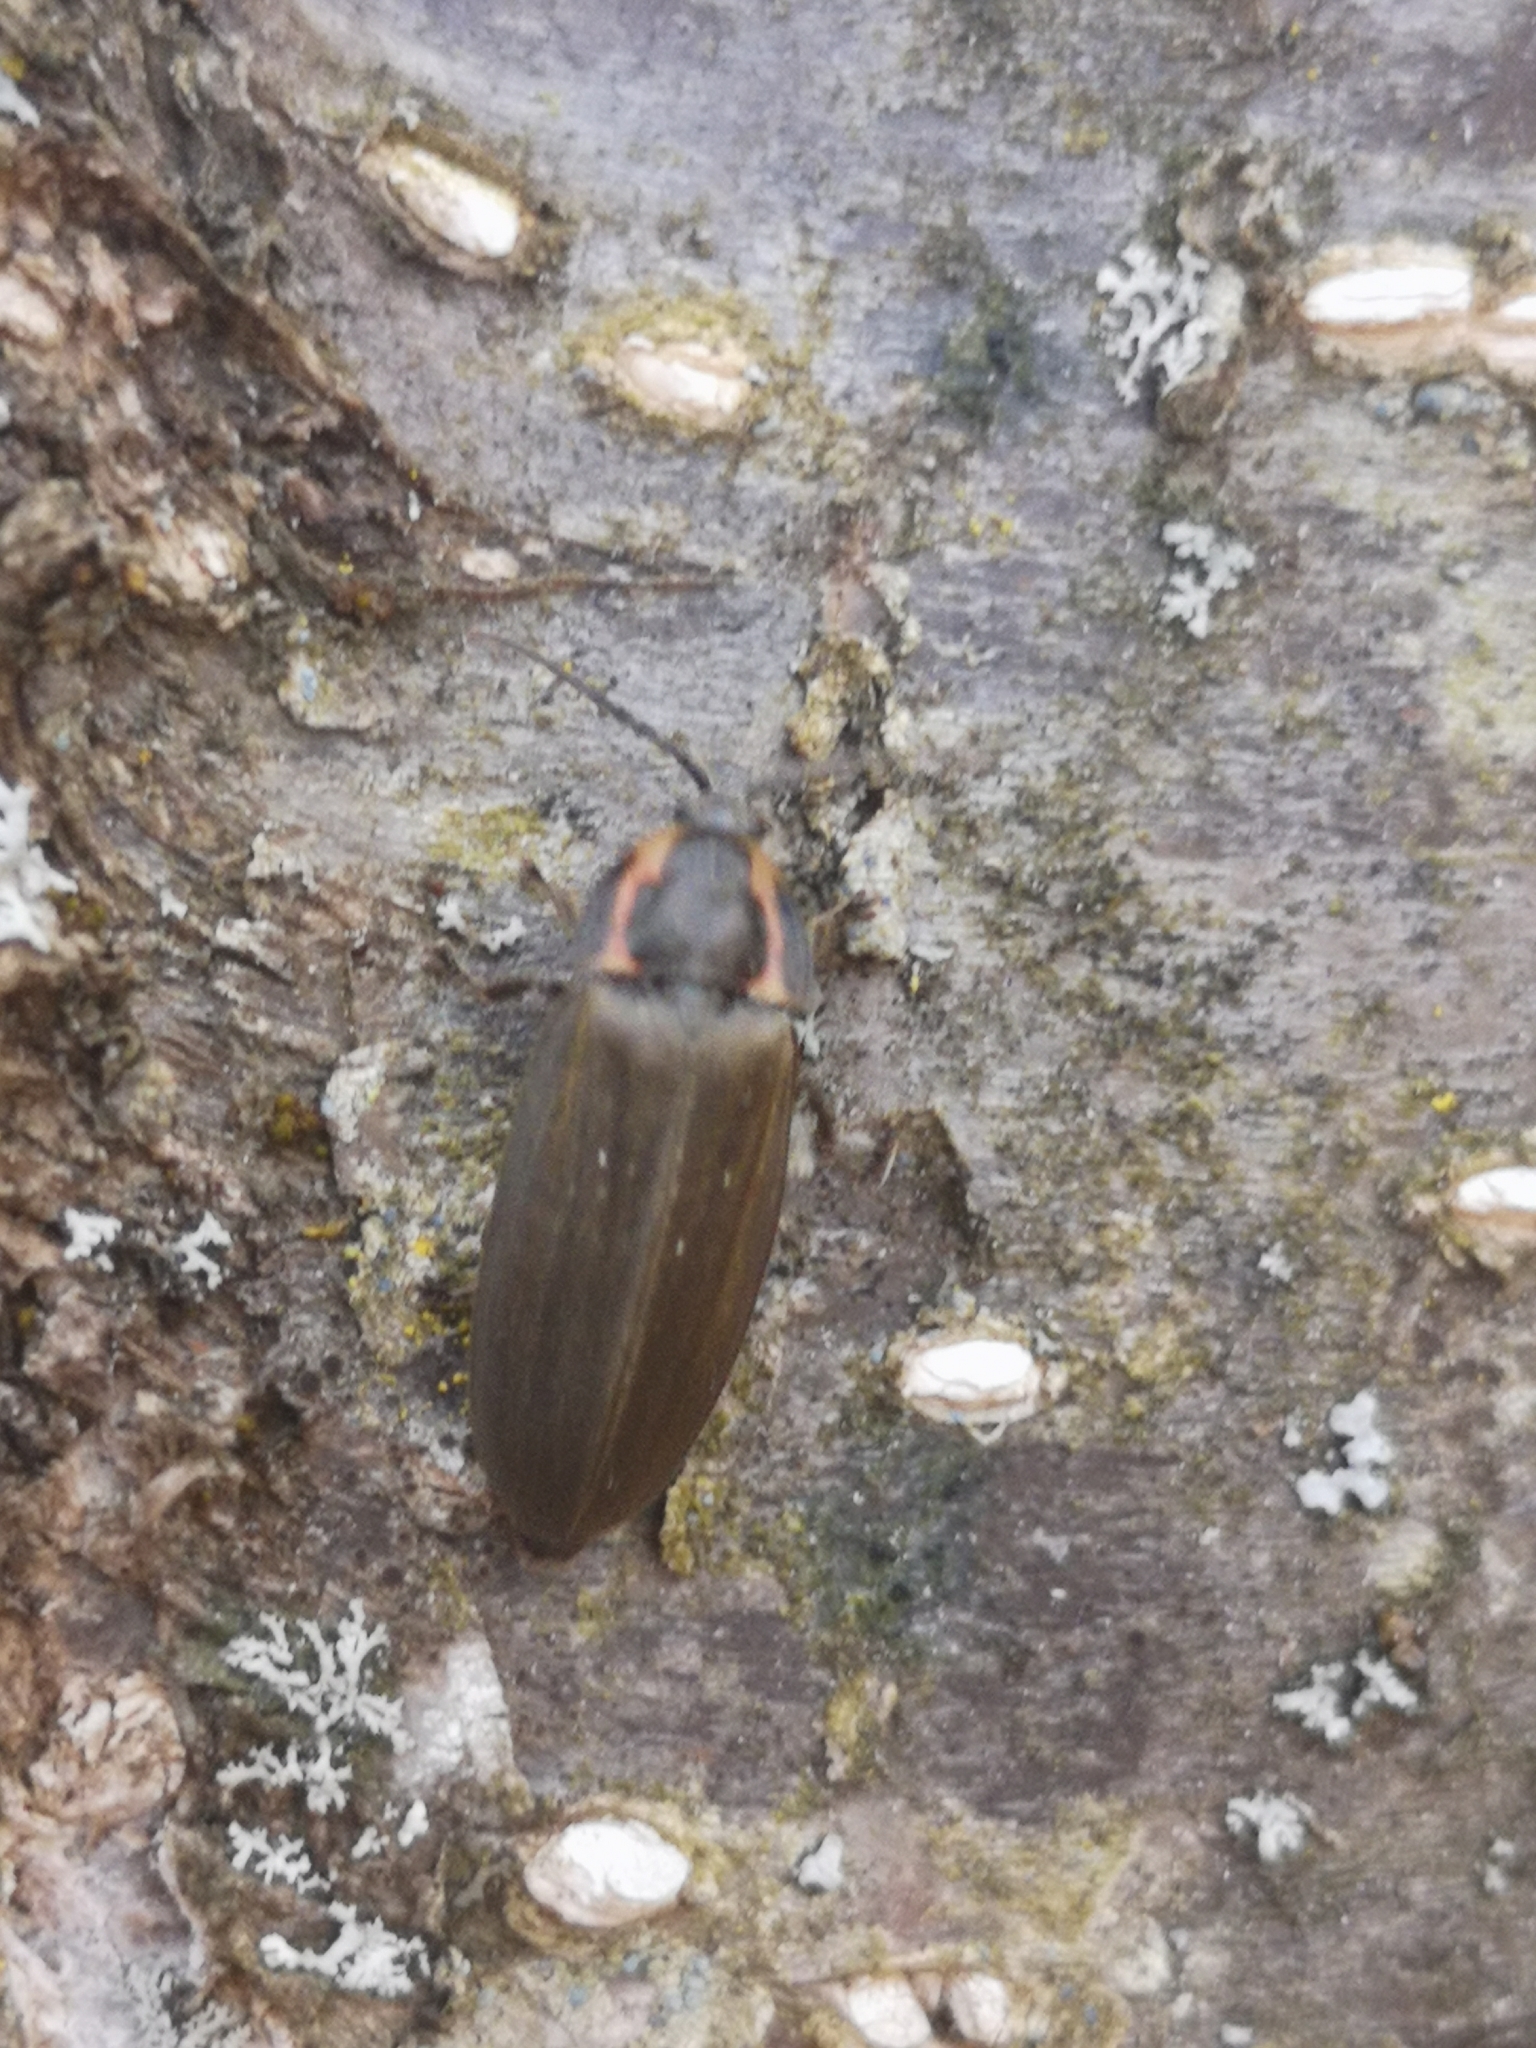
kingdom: Animalia
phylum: Arthropoda
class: Insecta
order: Coleoptera
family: Lampyridae
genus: Photinus
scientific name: Photinus corrusca
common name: Winter firefly
